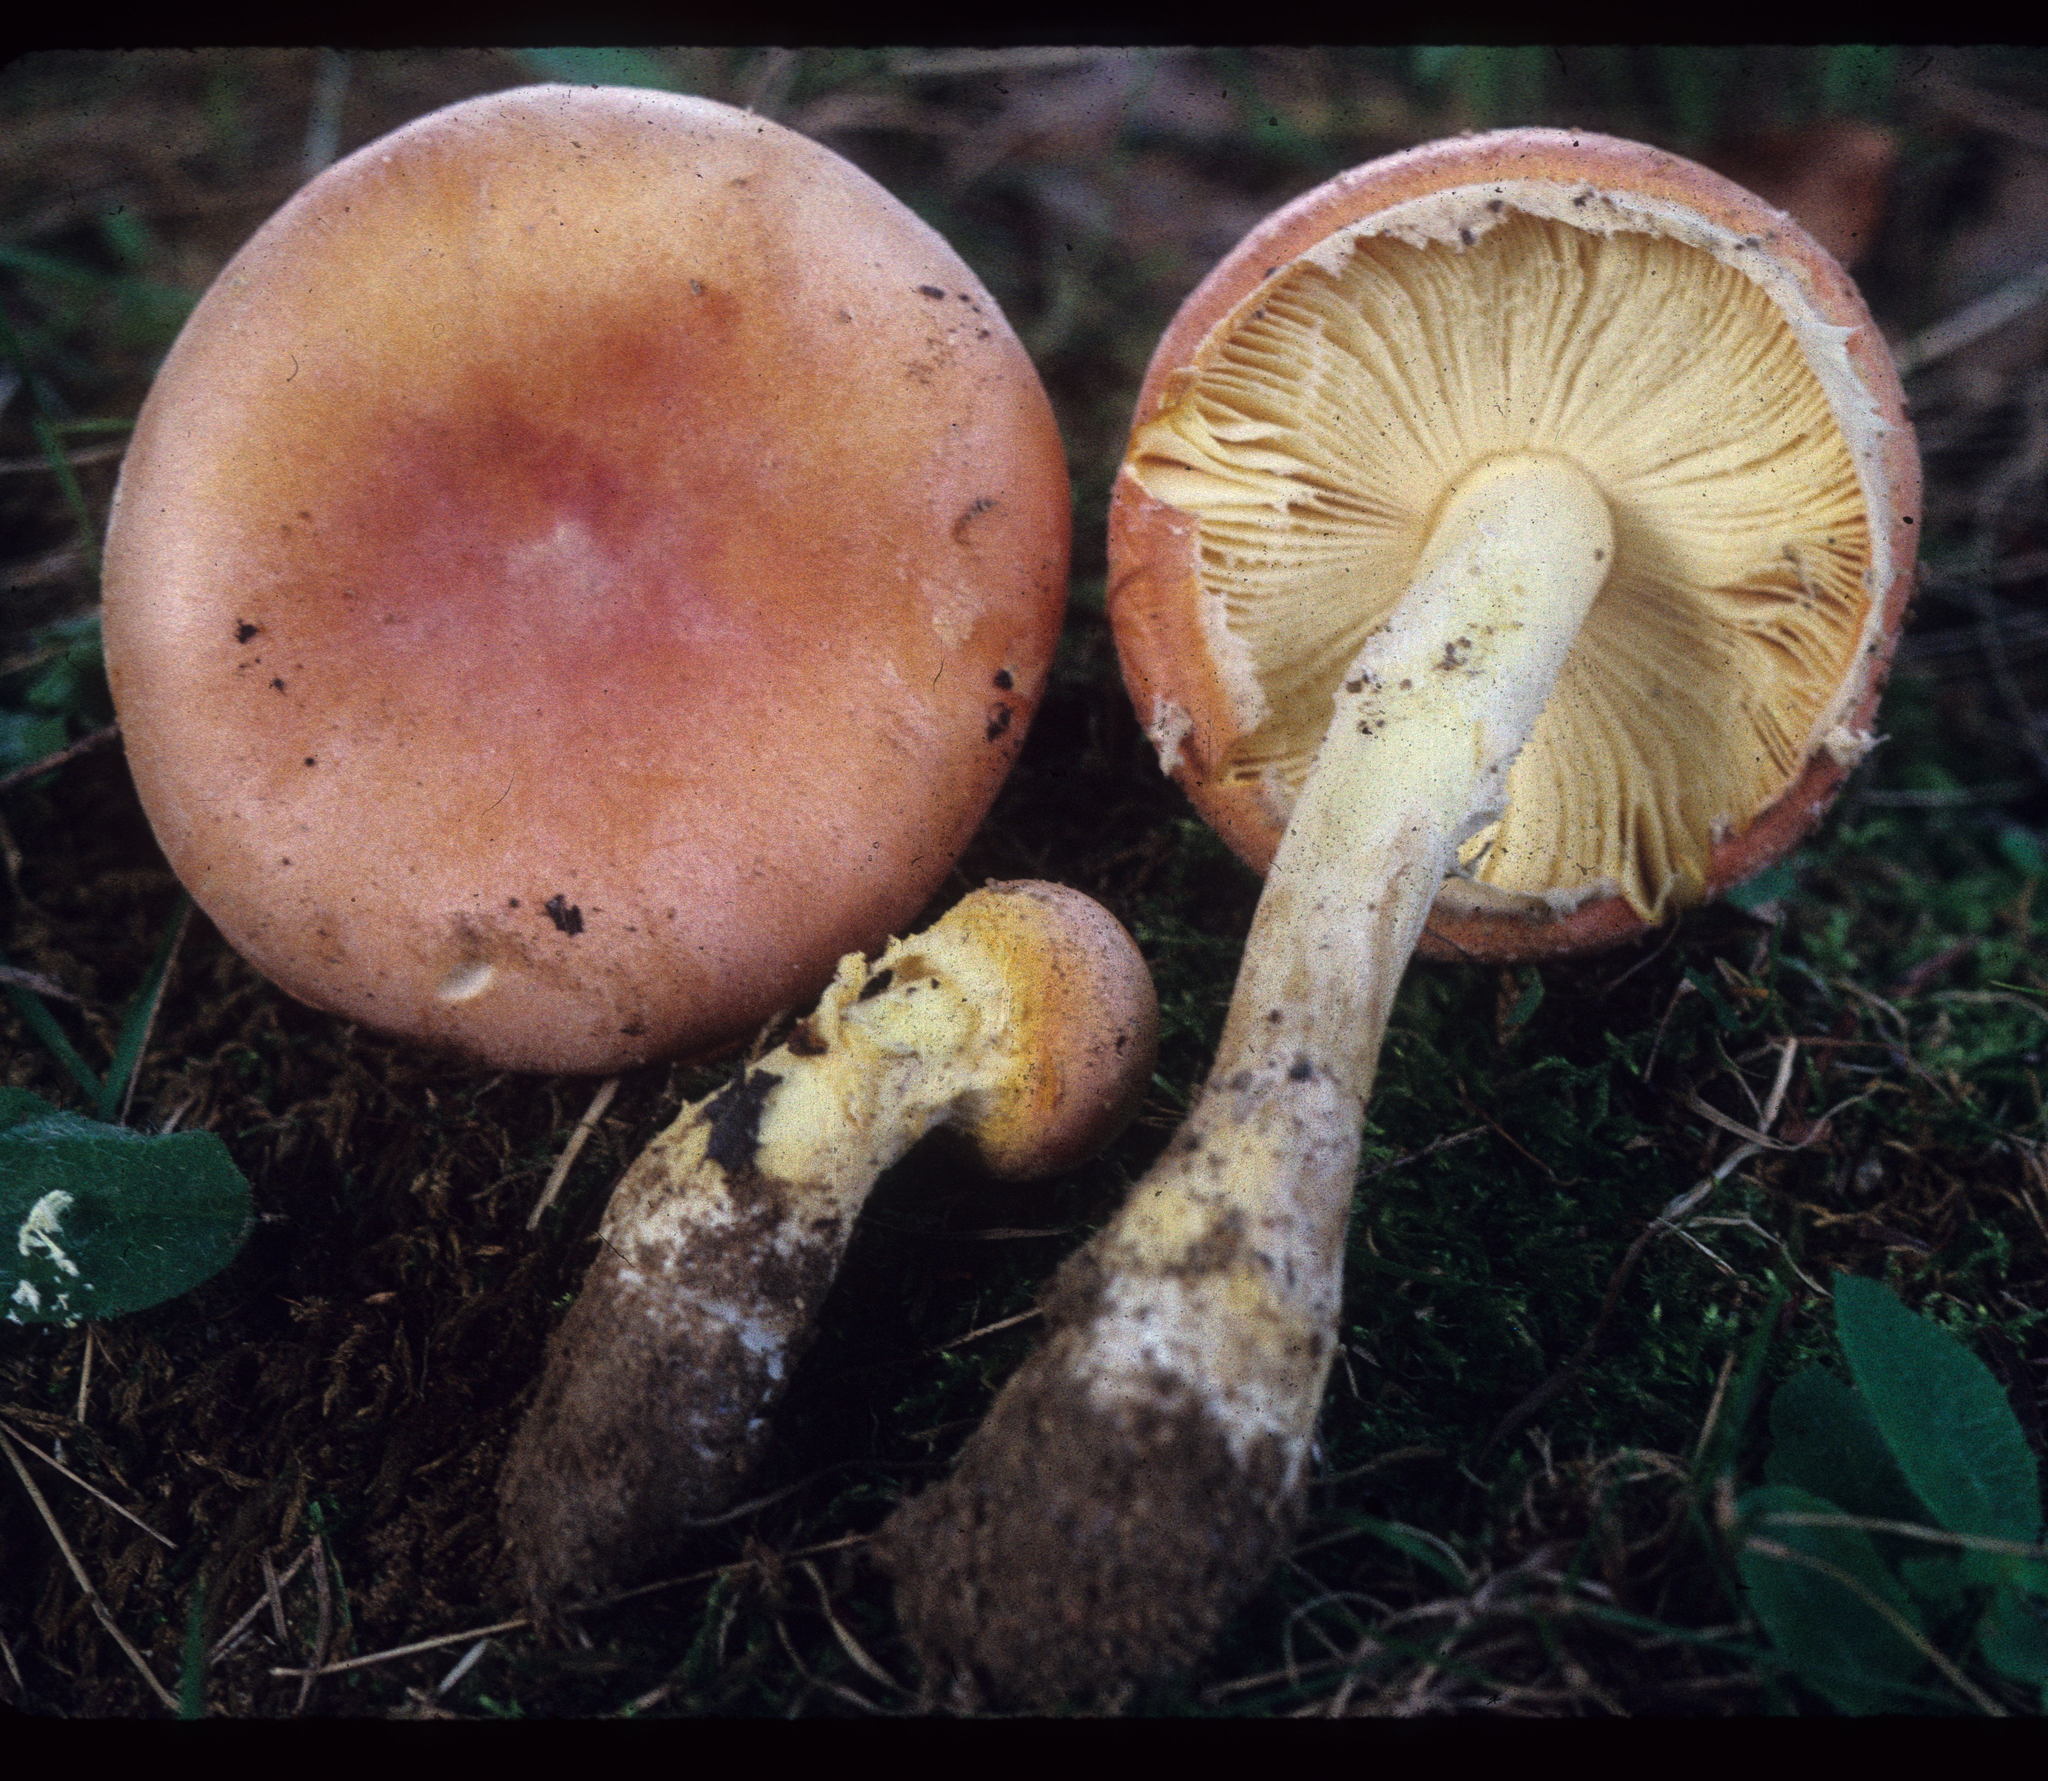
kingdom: Fungi
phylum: Basidiomycota
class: Agaricomycetes
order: Agaricales
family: Amanitaceae
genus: Amanita
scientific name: Amanita wellsii
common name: Salmon amanita
